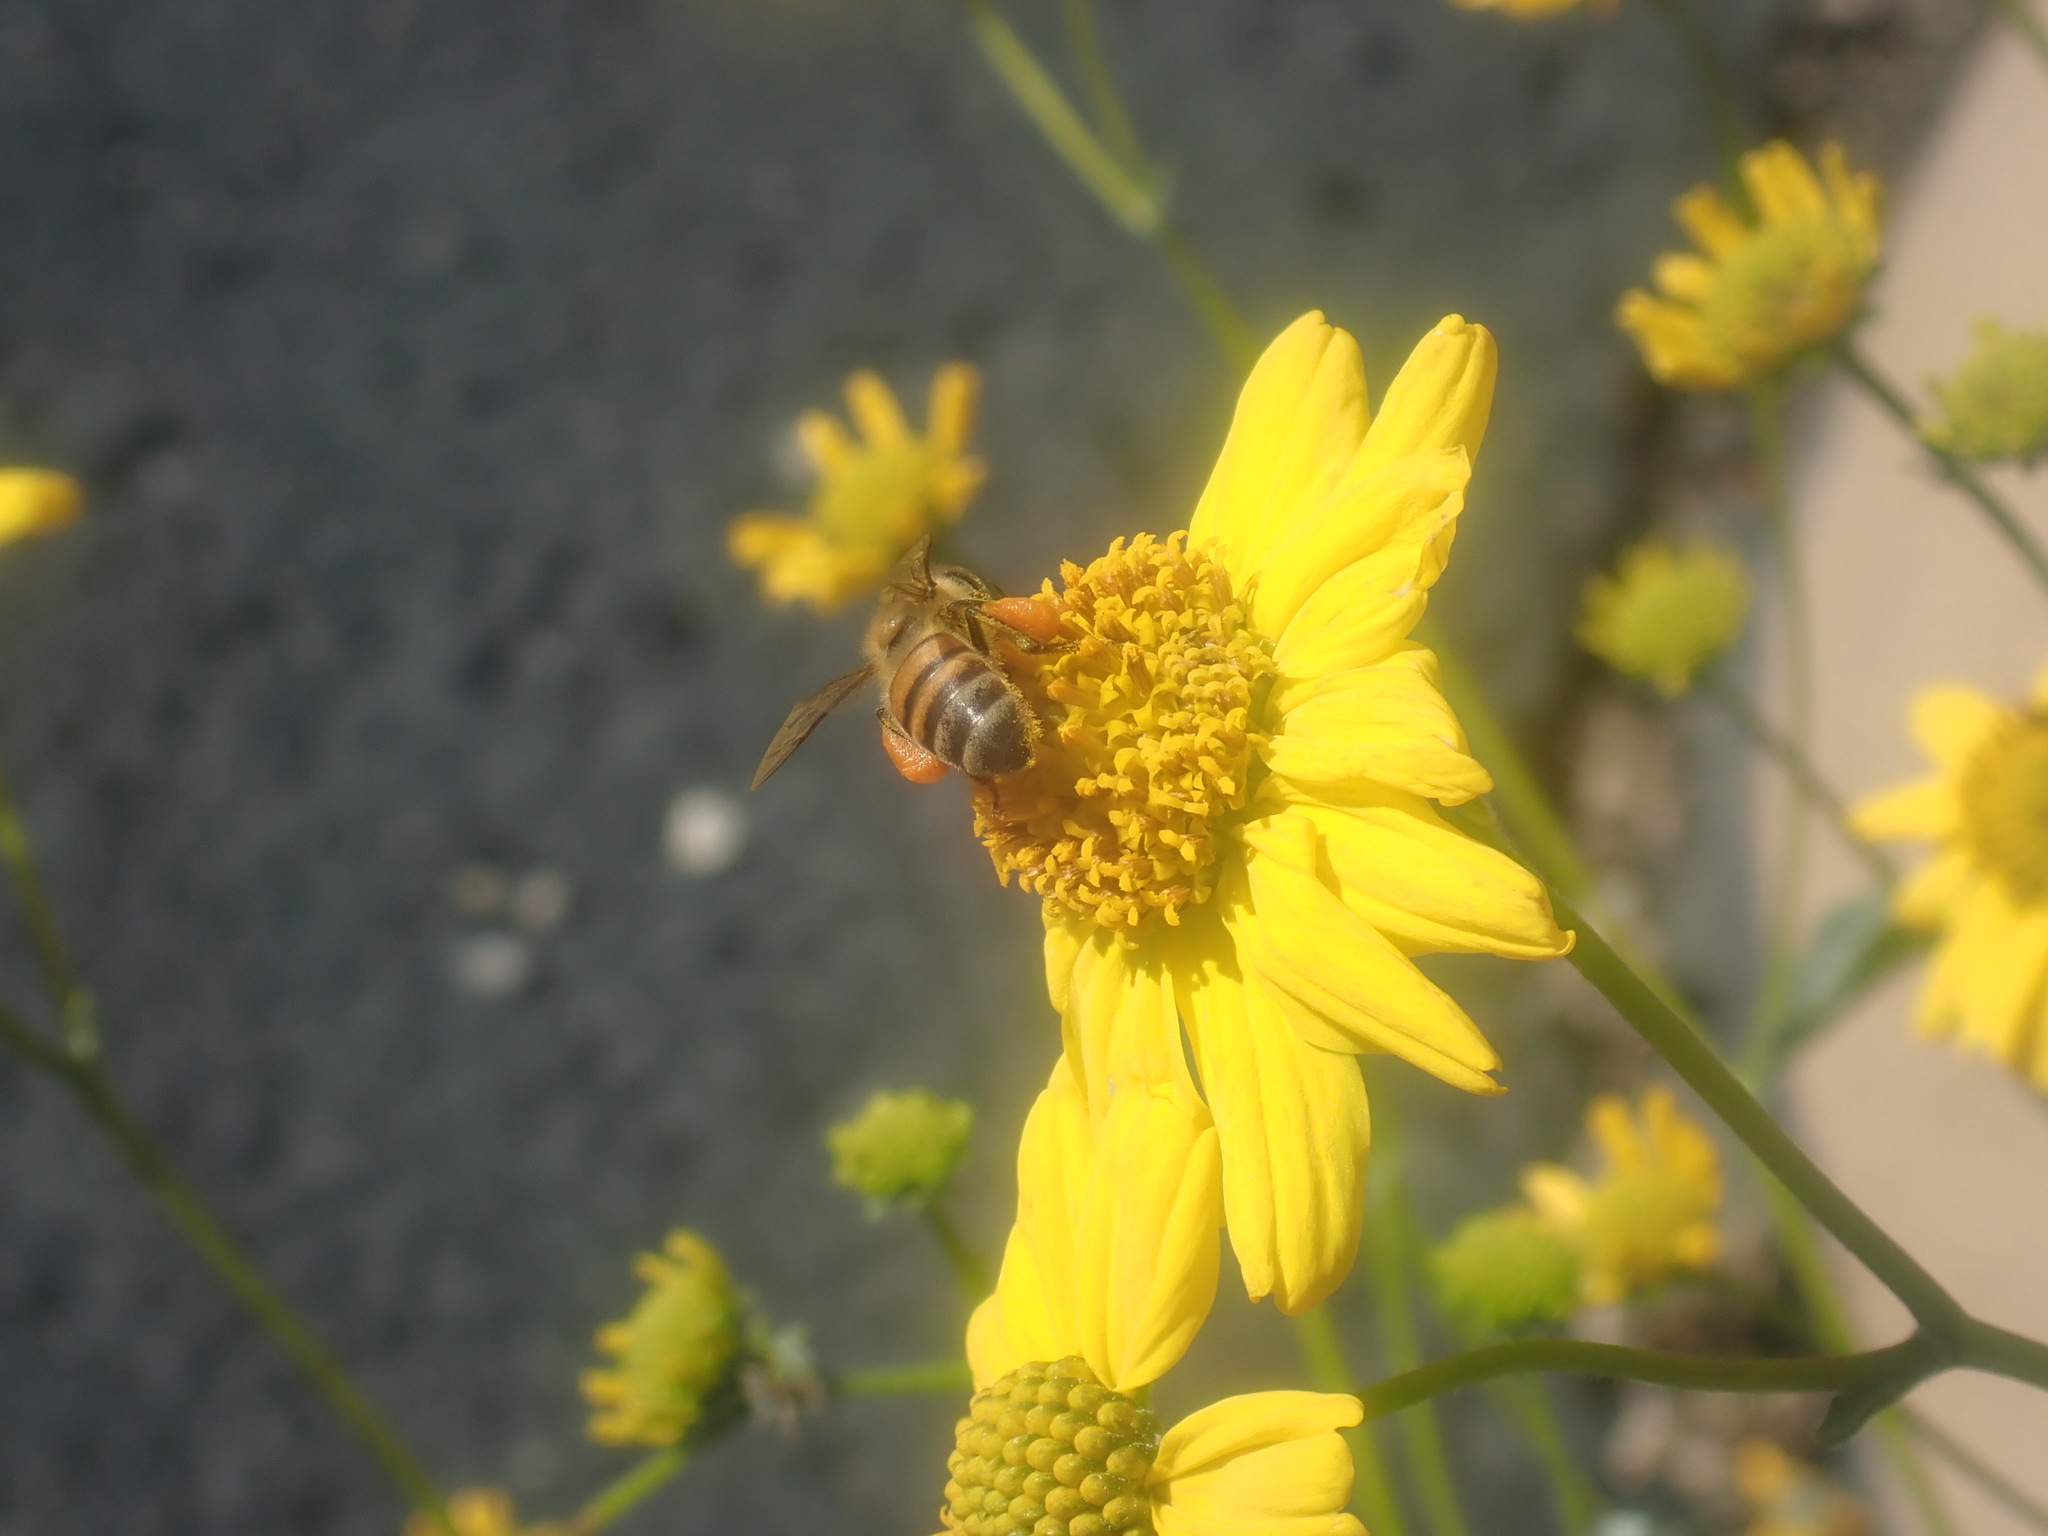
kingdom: Animalia
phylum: Arthropoda
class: Insecta
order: Hymenoptera
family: Apidae
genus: Apis
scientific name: Apis mellifera
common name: Honey bee
